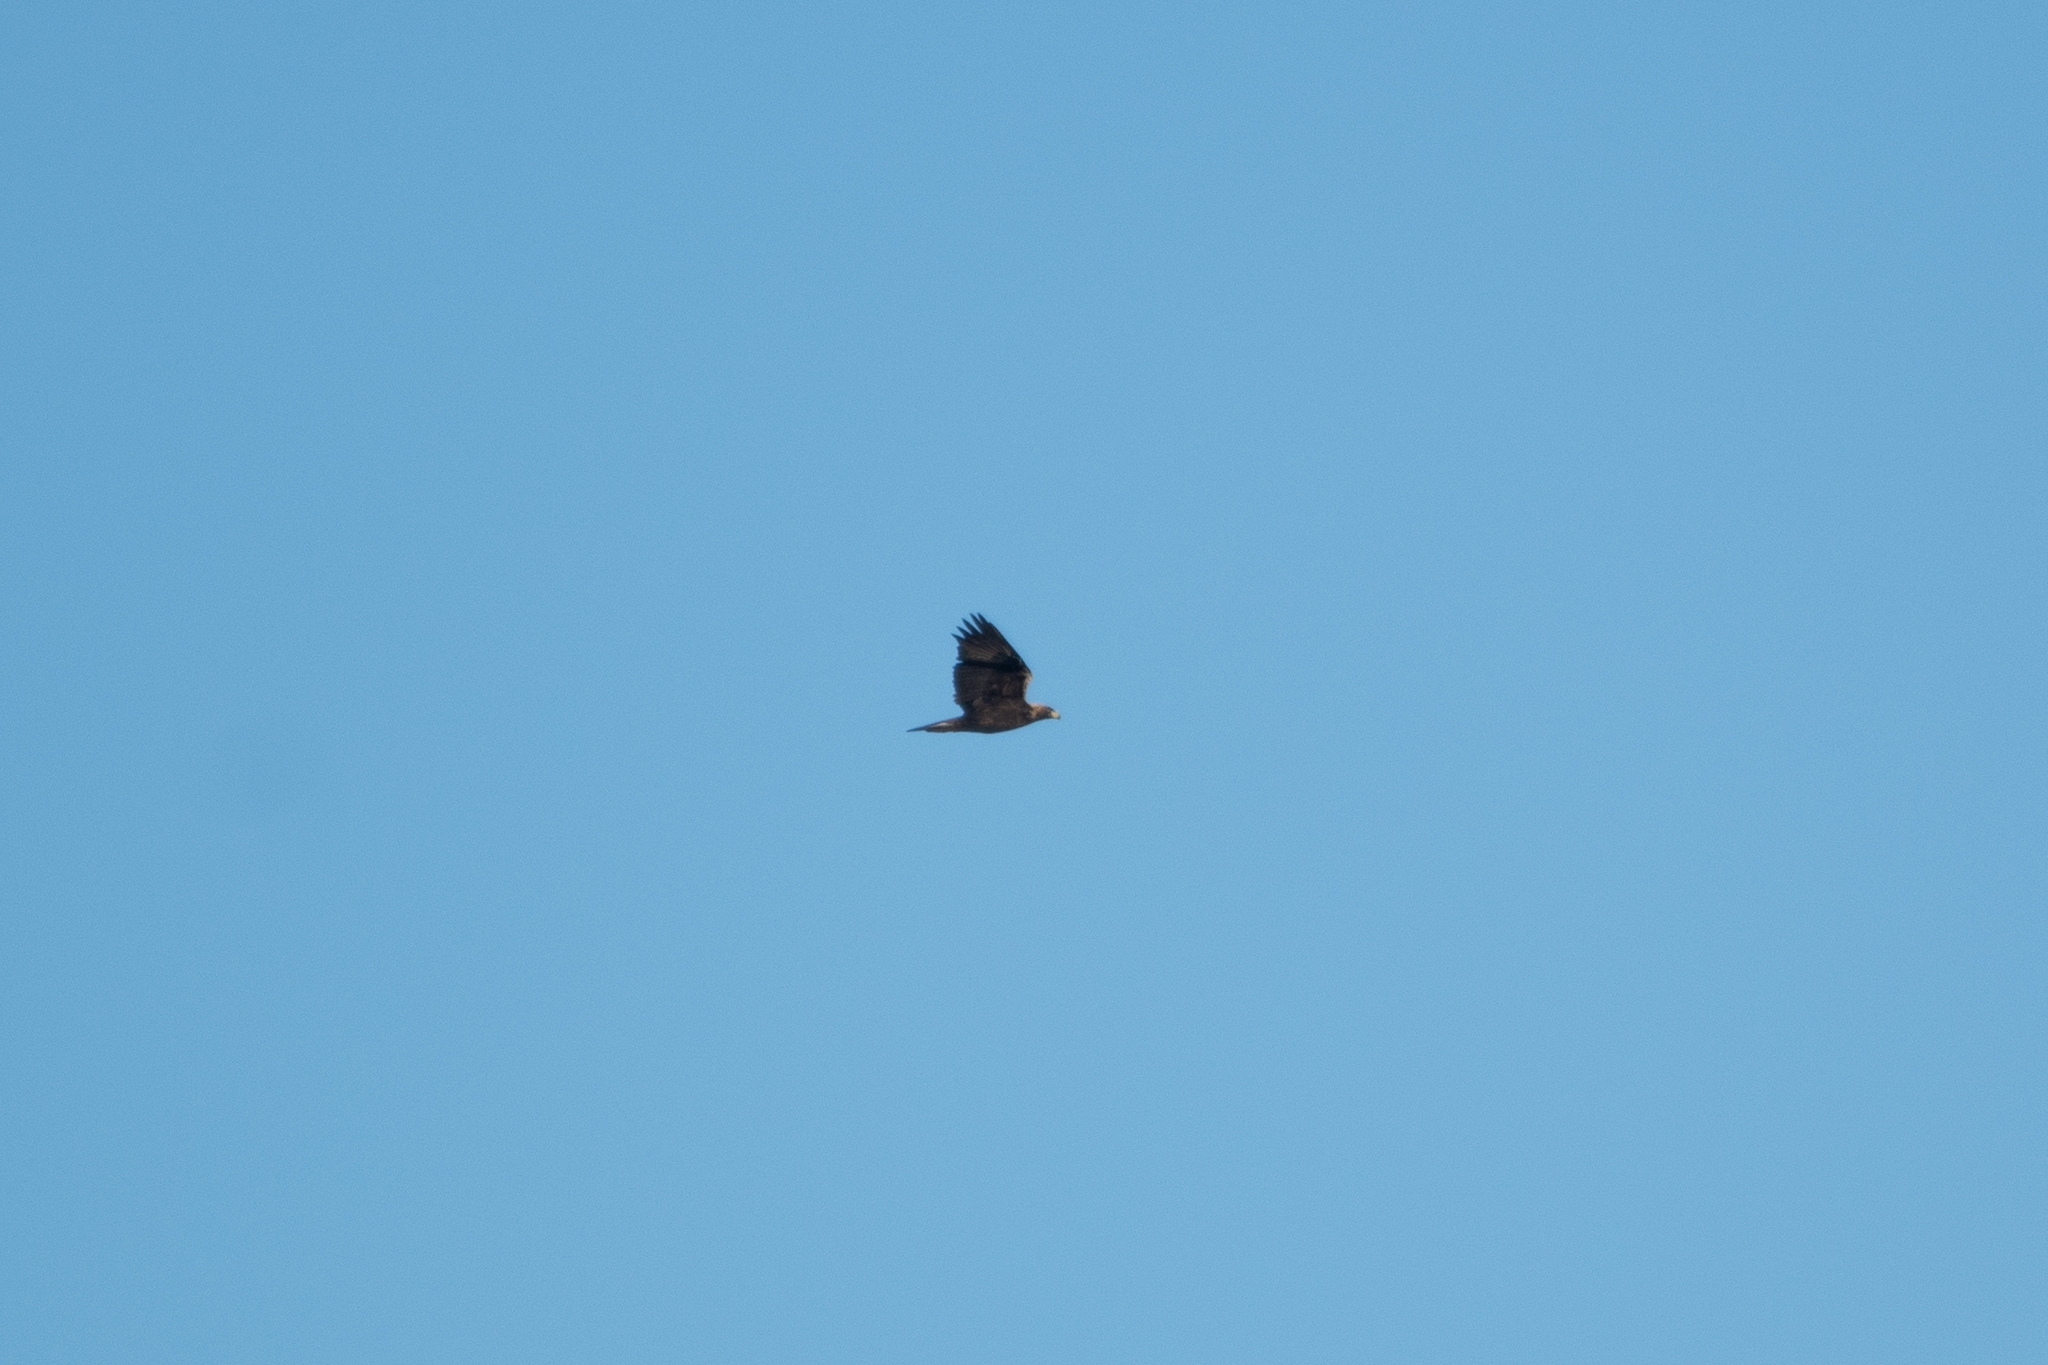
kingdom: Animalia
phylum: Chordata
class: Aves
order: Accipitriformes
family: Accipitridae
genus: Aquila
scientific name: Aquila chrysaetos
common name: Golden eagle
